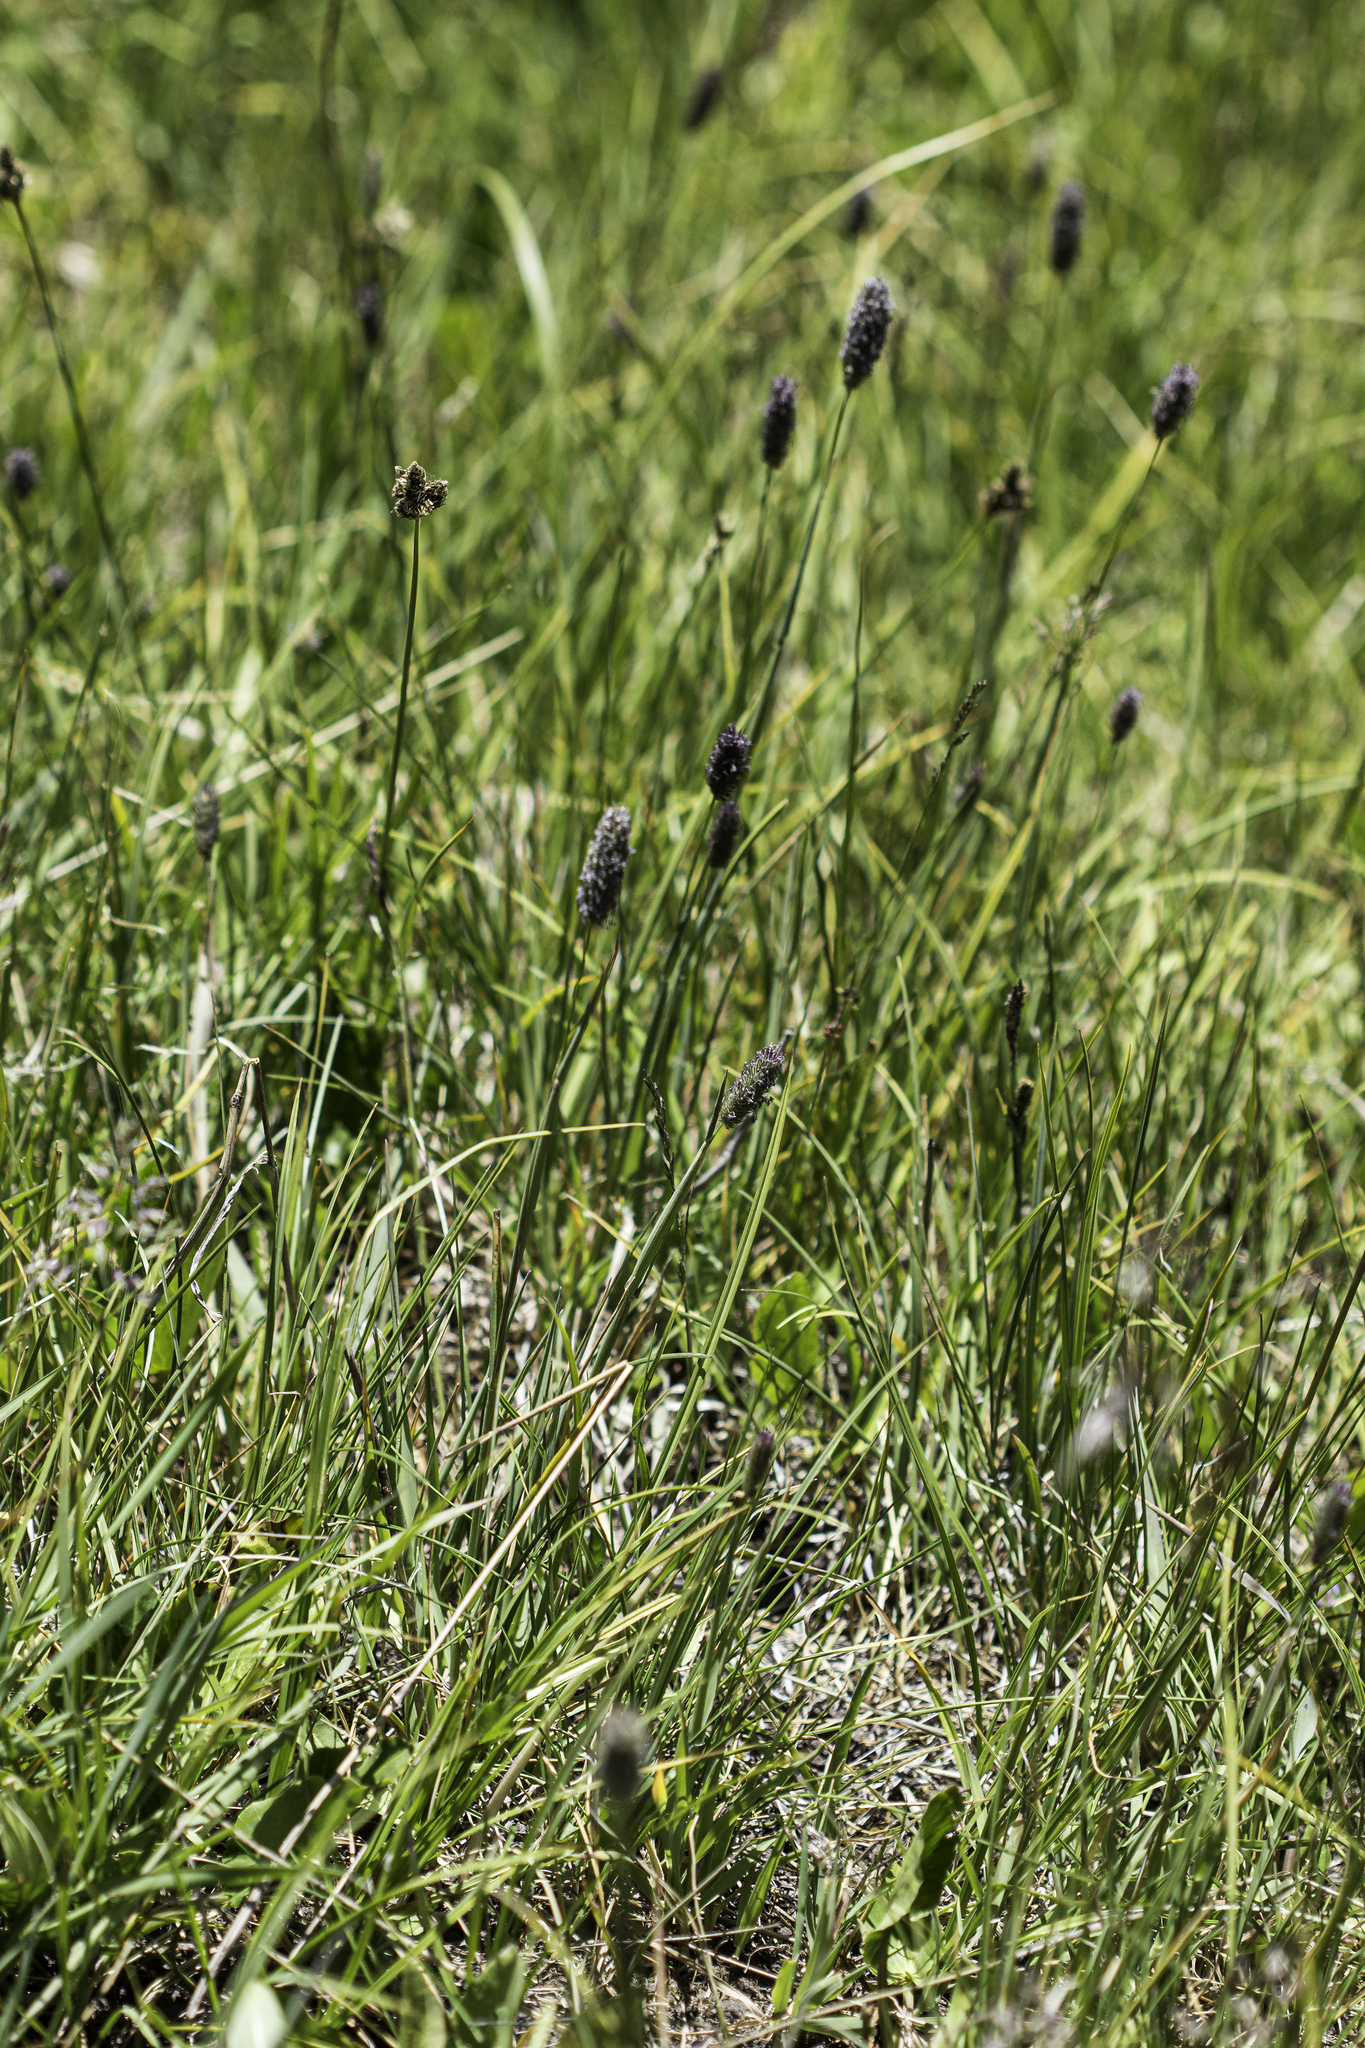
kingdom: Plantae
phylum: Tracheophyta
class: Liliopsida
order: Poales
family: Poaceae
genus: Phleum
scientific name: Phleum alpinum
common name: Alpine cat's-tail
